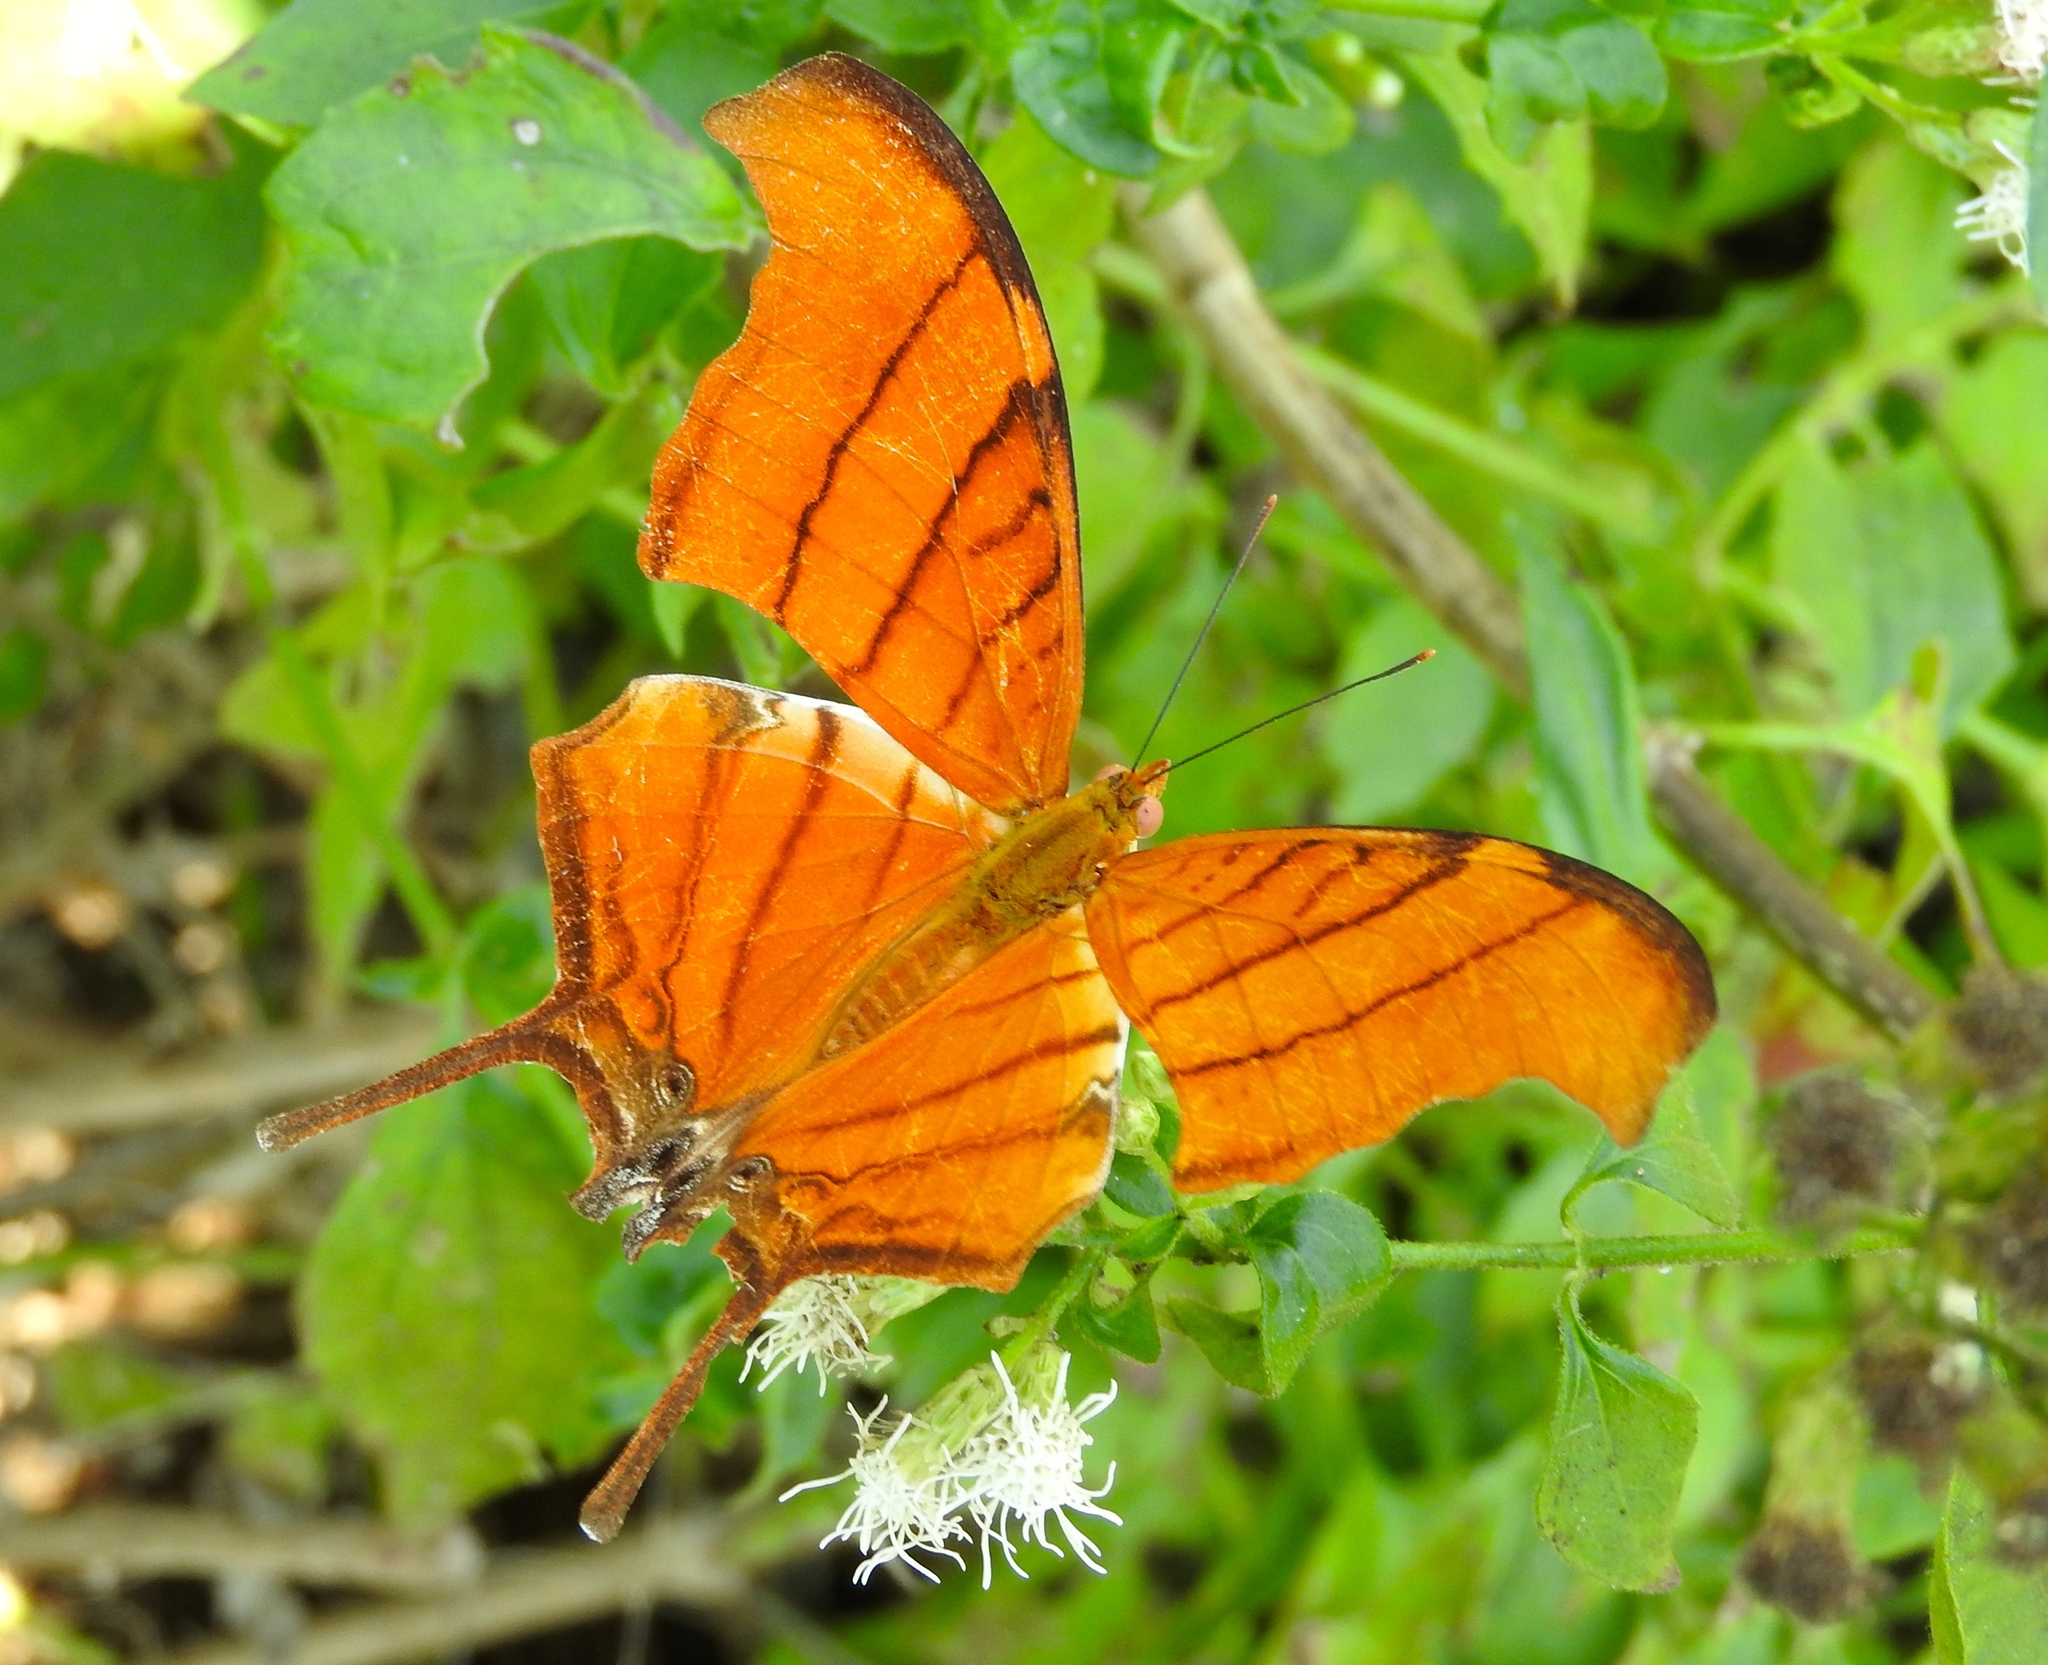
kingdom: Animalia
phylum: Arthropoda
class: Insecta
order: Lepidoptera
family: Nymphalidae
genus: Marpesia
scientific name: Marpesia petreus
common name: Red dagger wing
